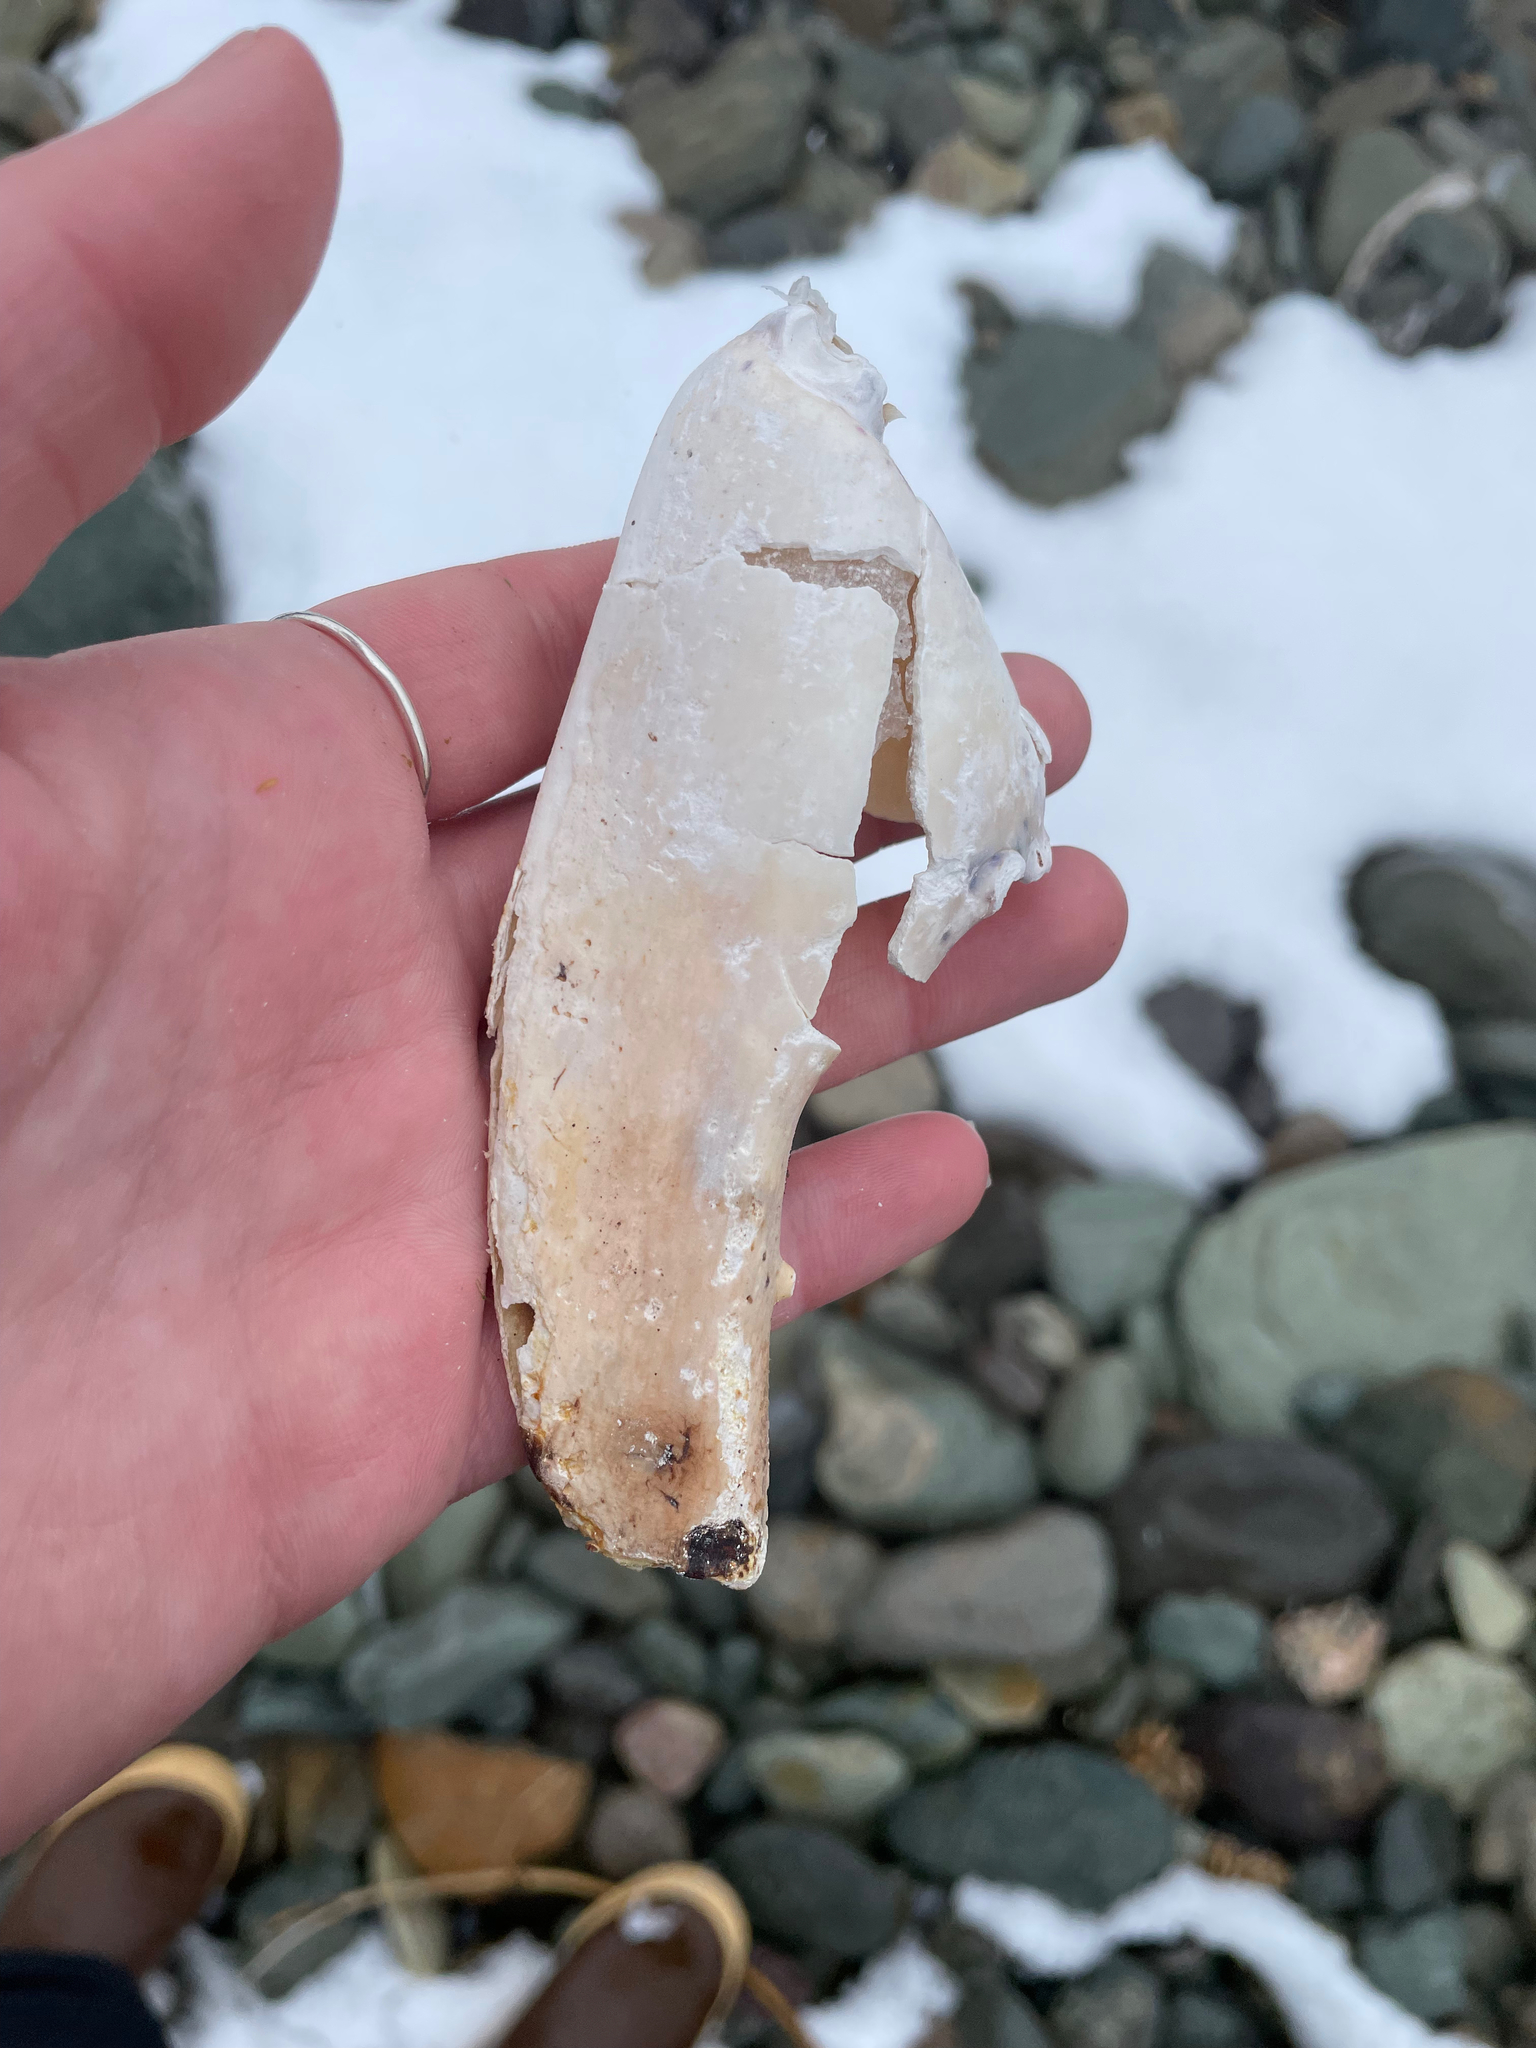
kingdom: Animalia
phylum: Arthropoda
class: Malacostraca
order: Decapoda
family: Nephropidae
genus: Homarus
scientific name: Homarus americanus
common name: American lobster
